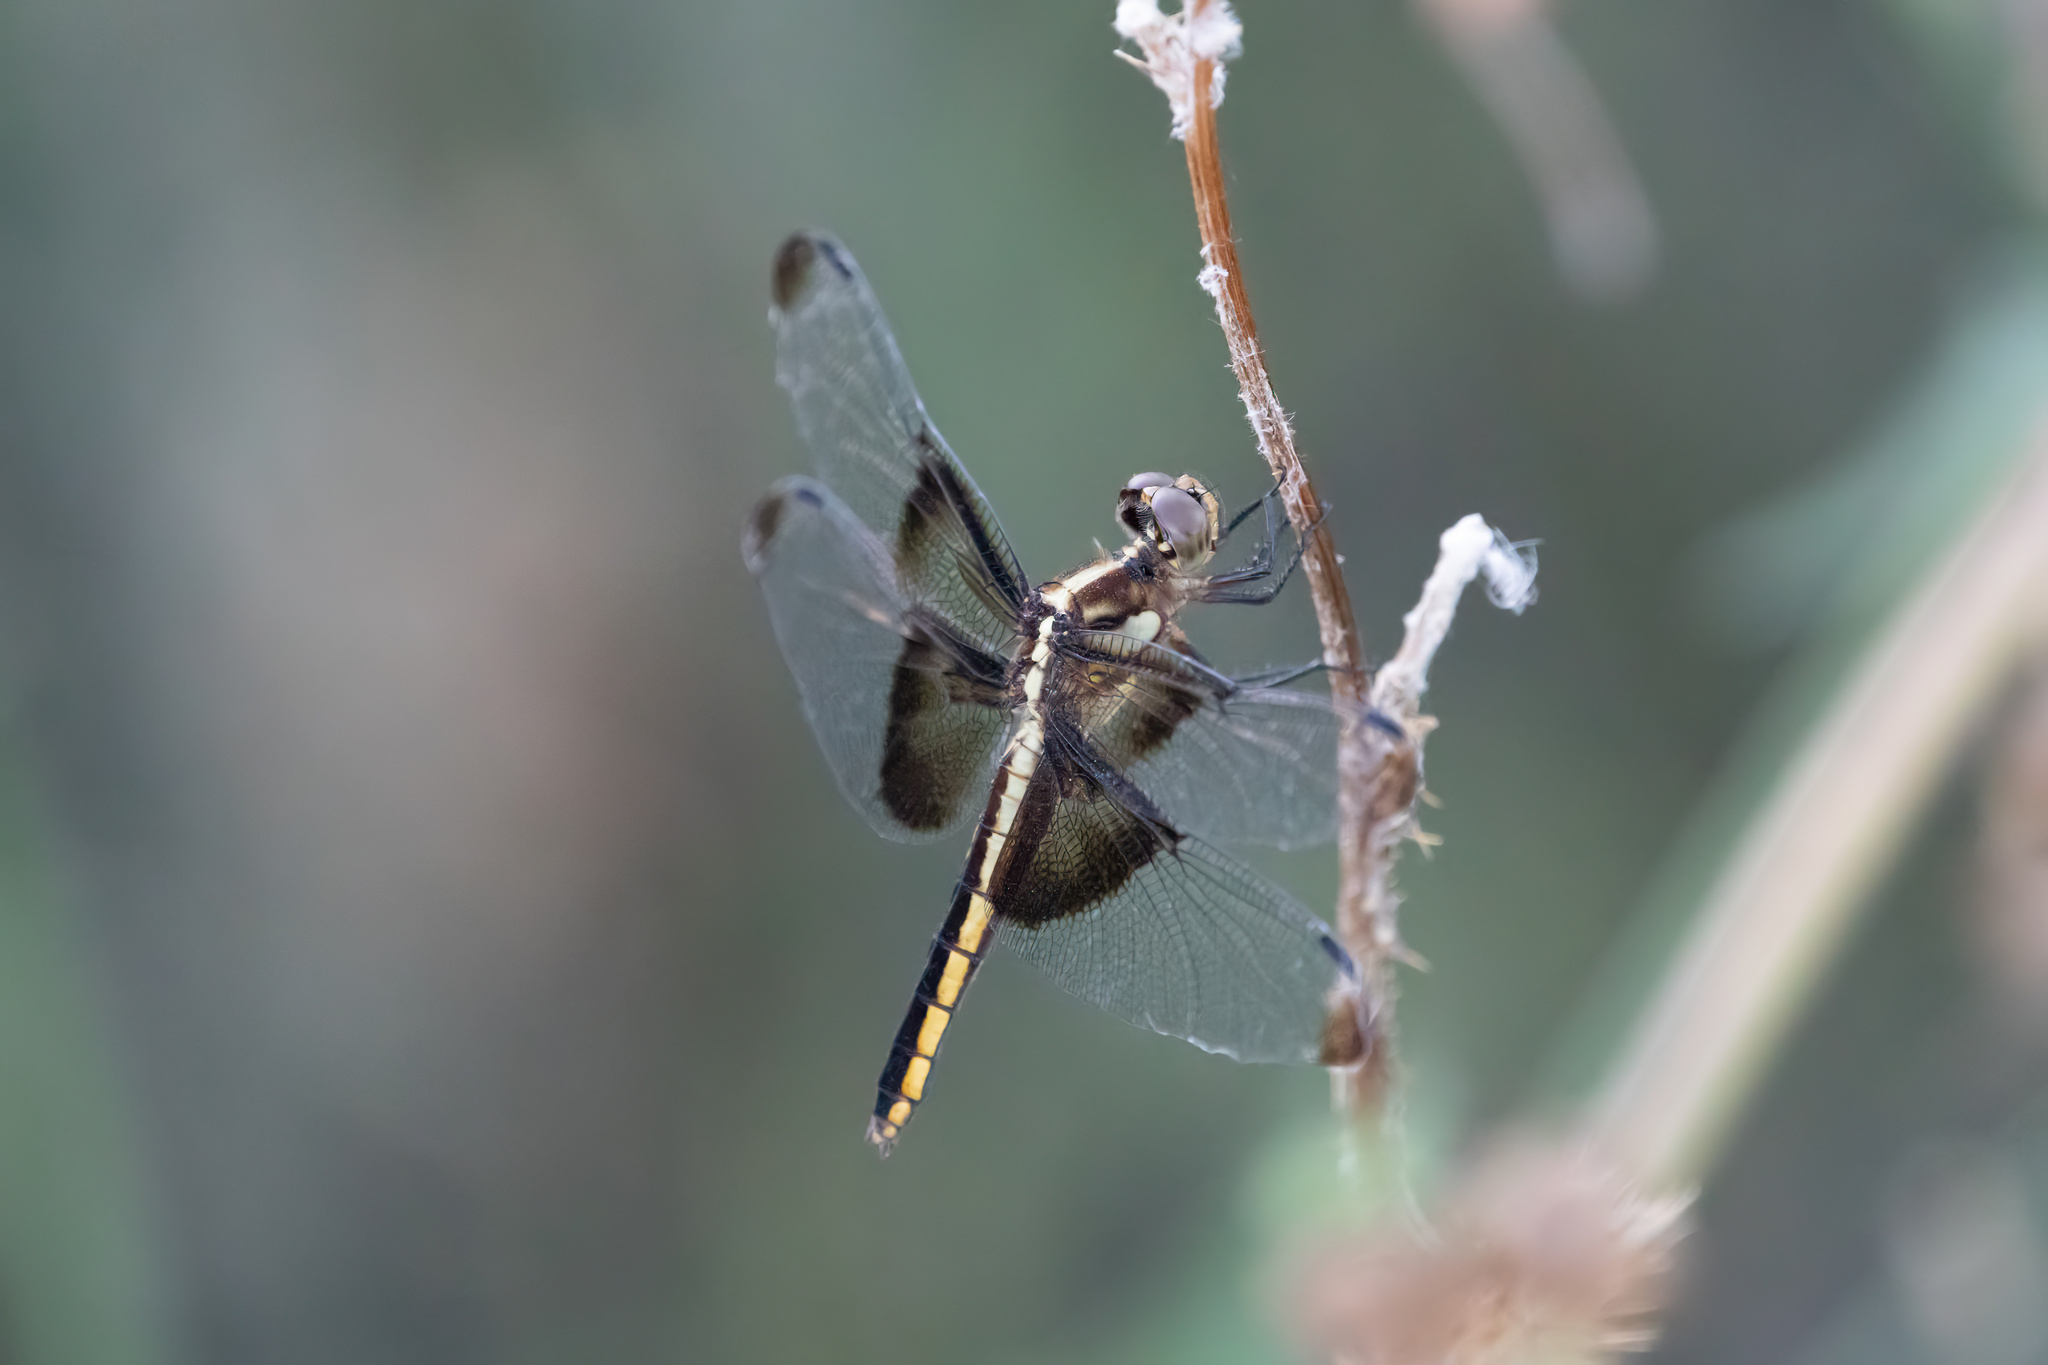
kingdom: Animalia
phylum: Arthropoda
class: Insecta
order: Odonata
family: Libellulidae
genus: Libellula
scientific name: Libellula luctuosa
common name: Widow skimmer
